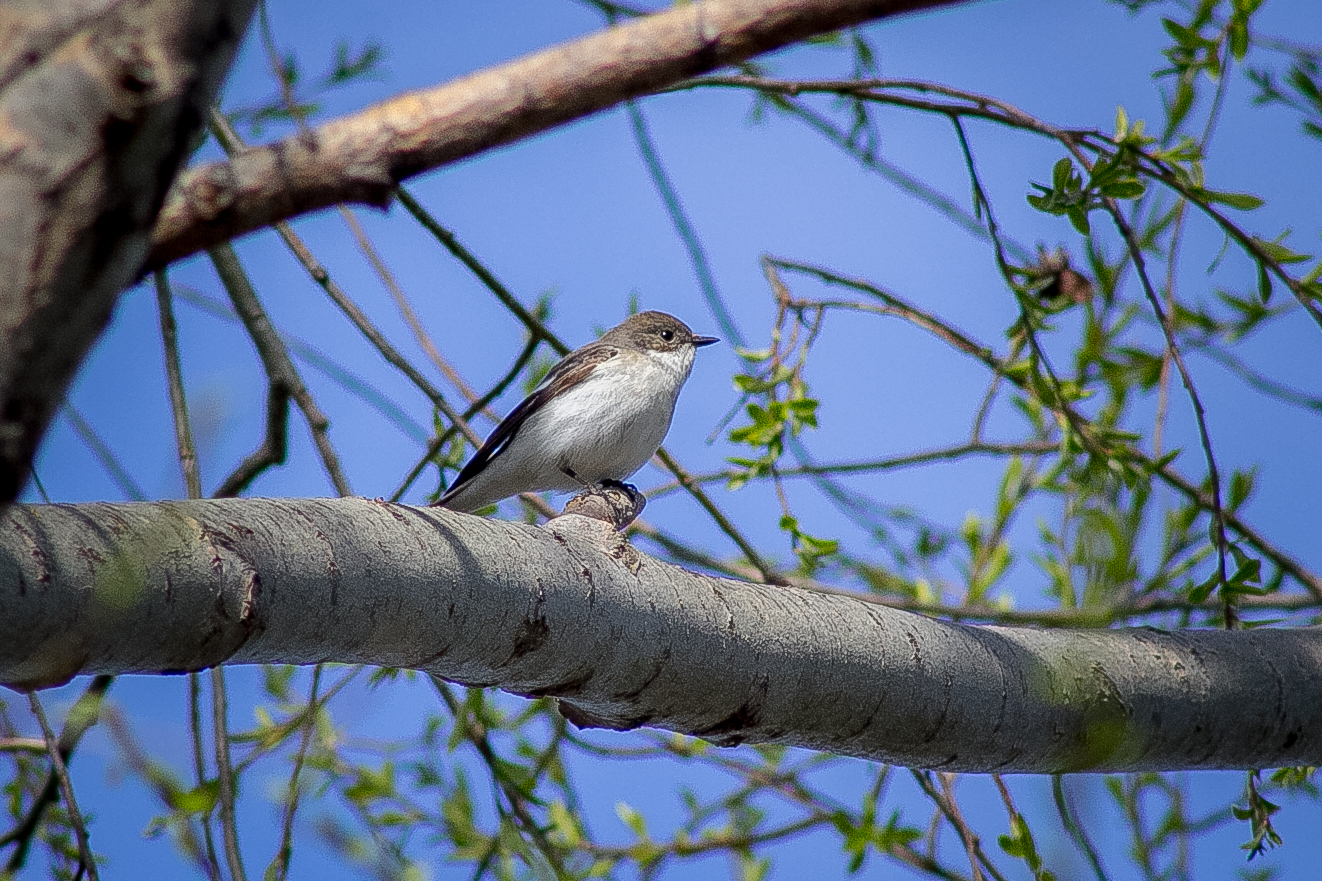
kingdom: Animalia
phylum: Chordata
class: Aves
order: Passeriformes
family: Muscicapidae
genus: Ficedula
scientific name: Ficedula hypoleuca
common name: European pied flycatcher
